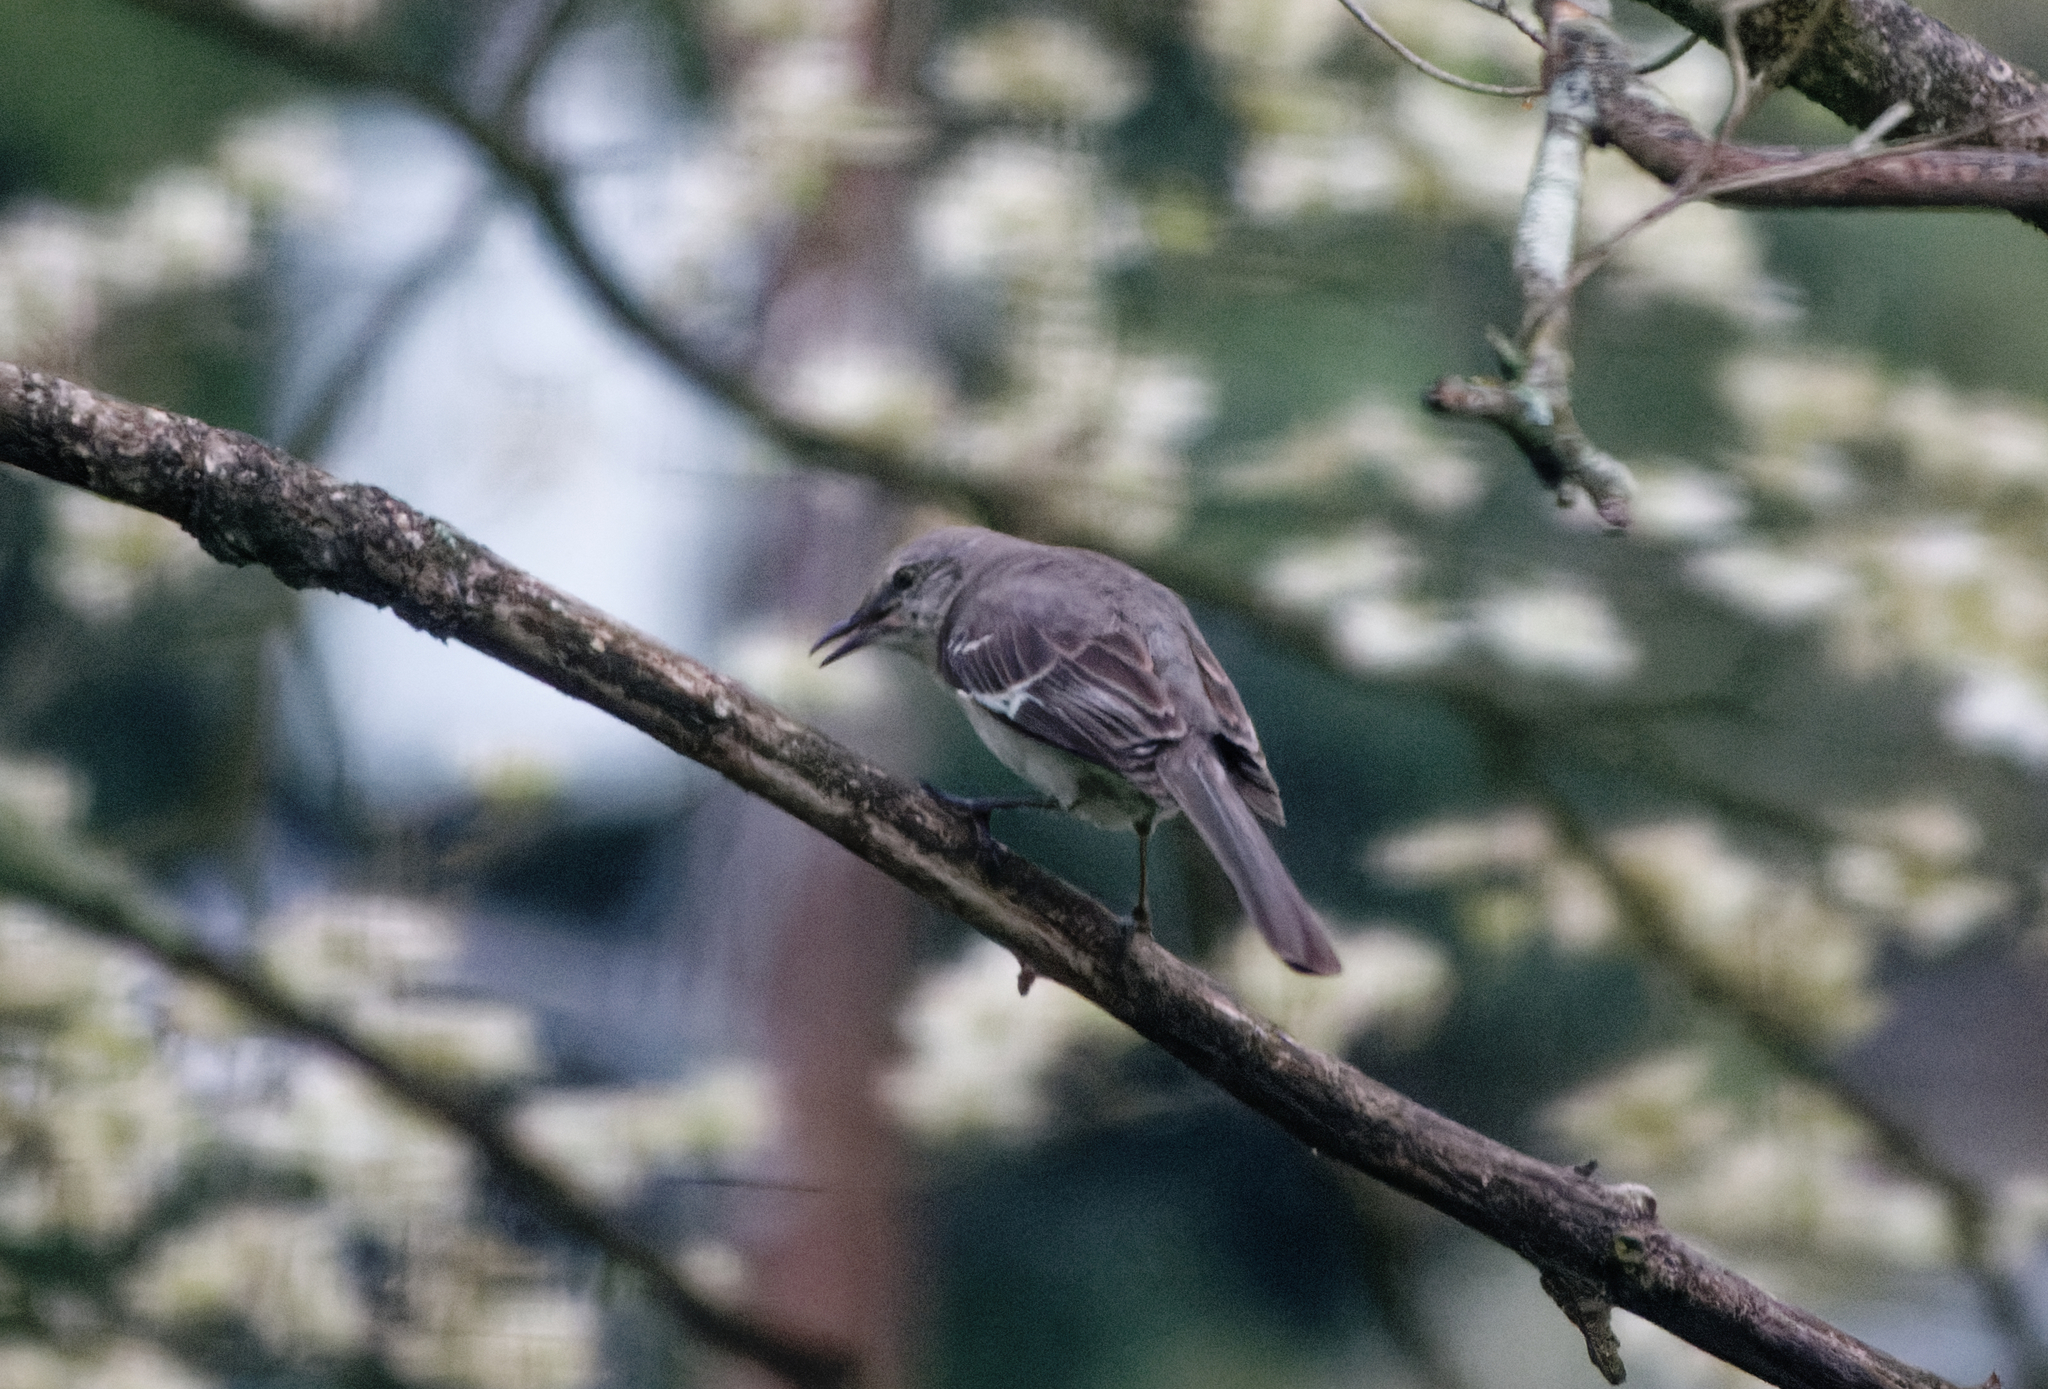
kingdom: Animalia
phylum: Chordata
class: Aves
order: Passeriformes
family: Mimidae
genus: Mimus
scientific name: Mimus polyglottos
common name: Northern mockingbird
